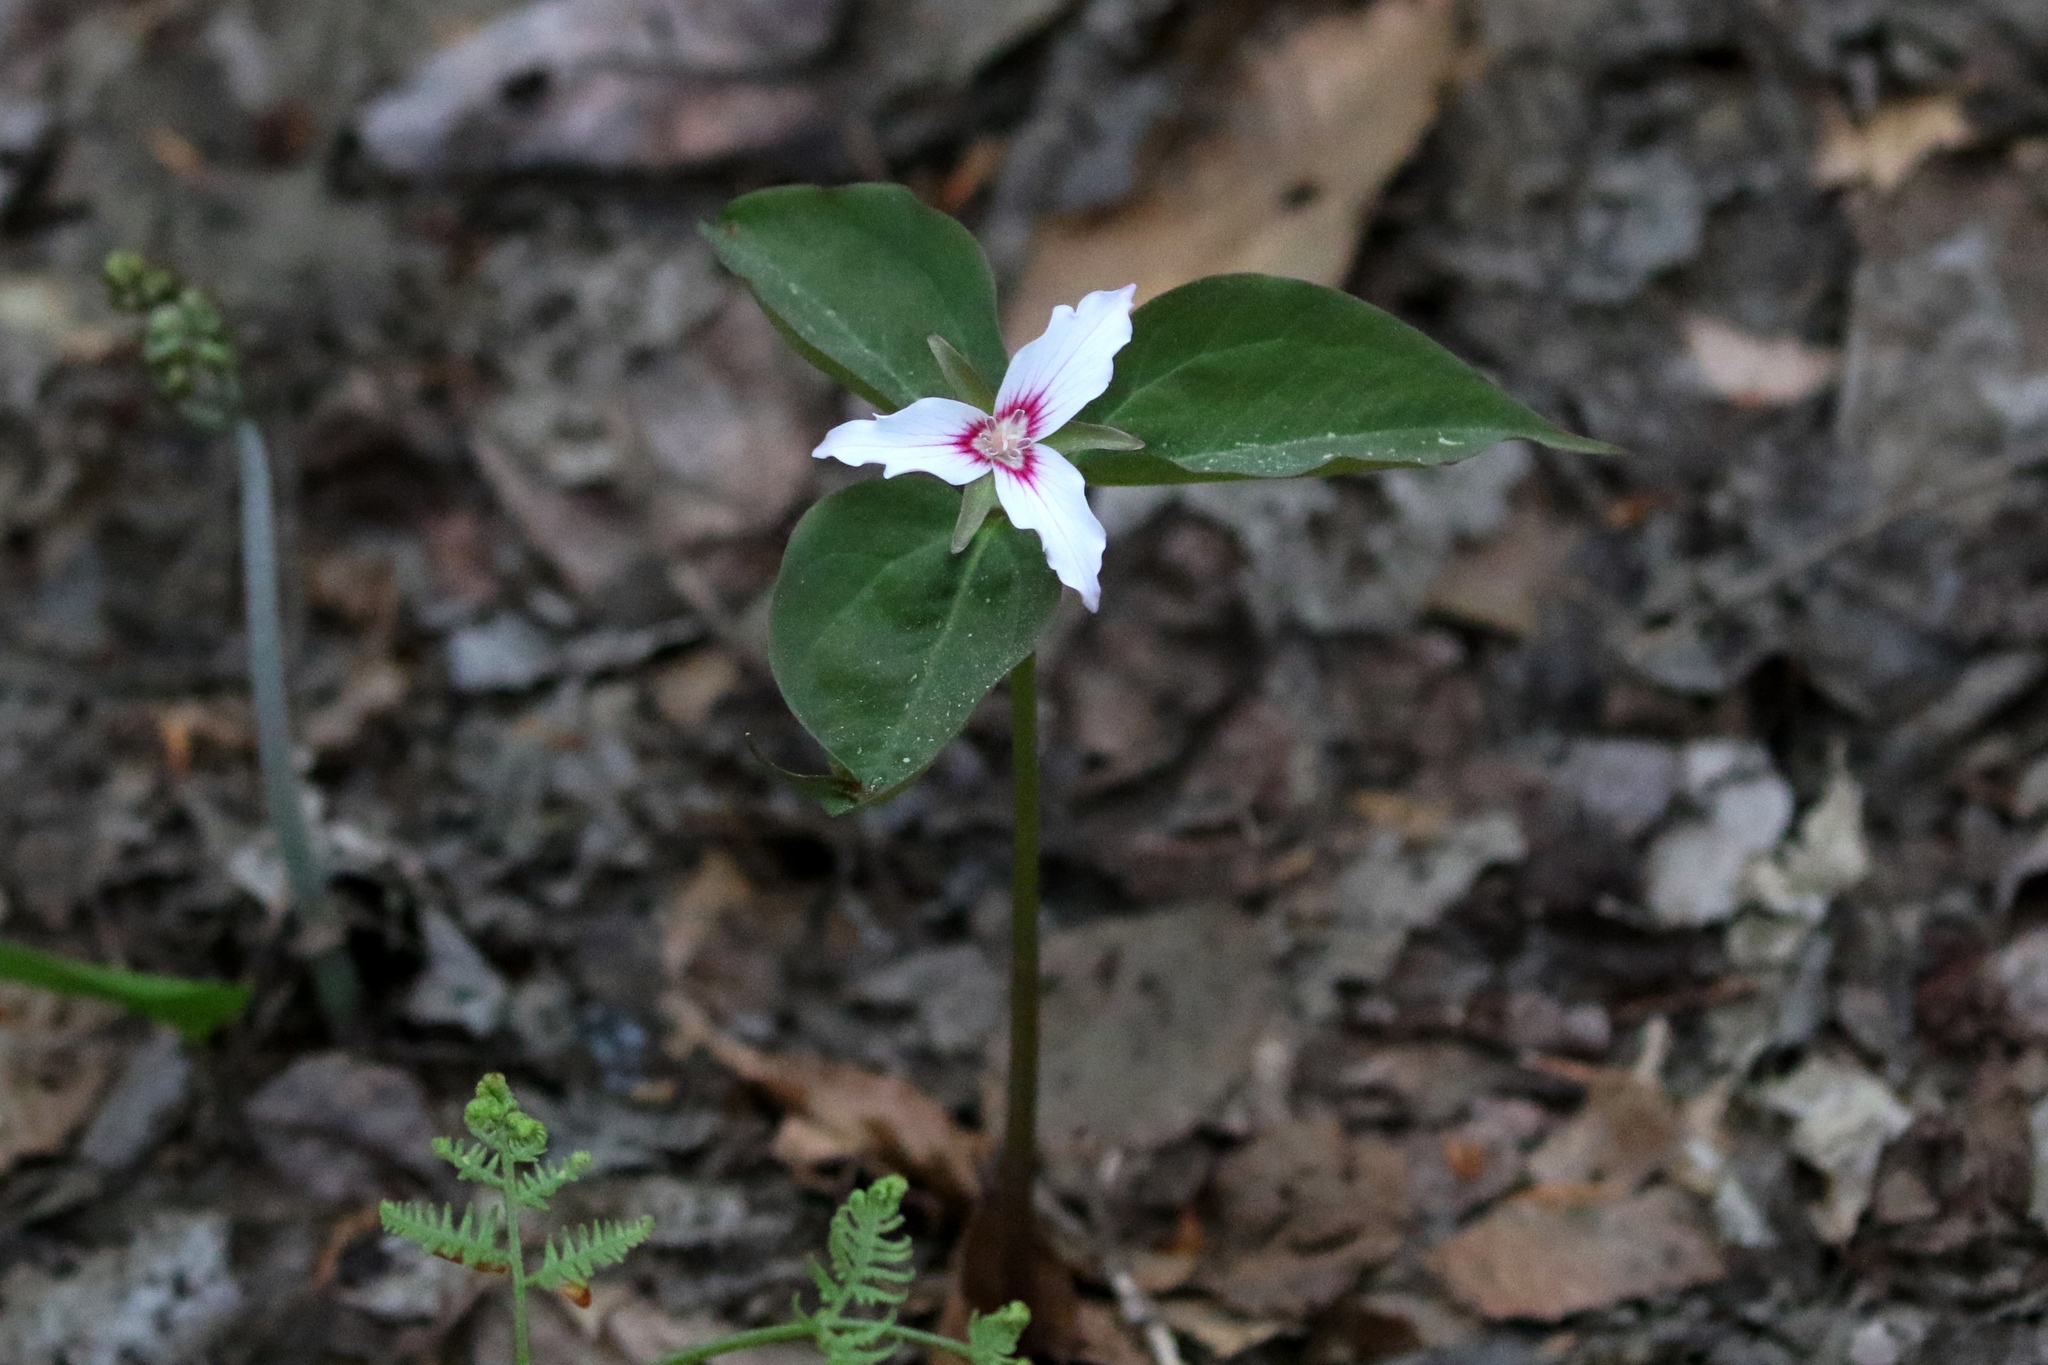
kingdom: Plantae
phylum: Tracheophyta
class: Liliopsida
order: Liliales
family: Melanthiaceae
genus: Trillium
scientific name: Trillium undulatum
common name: Paint trillium
